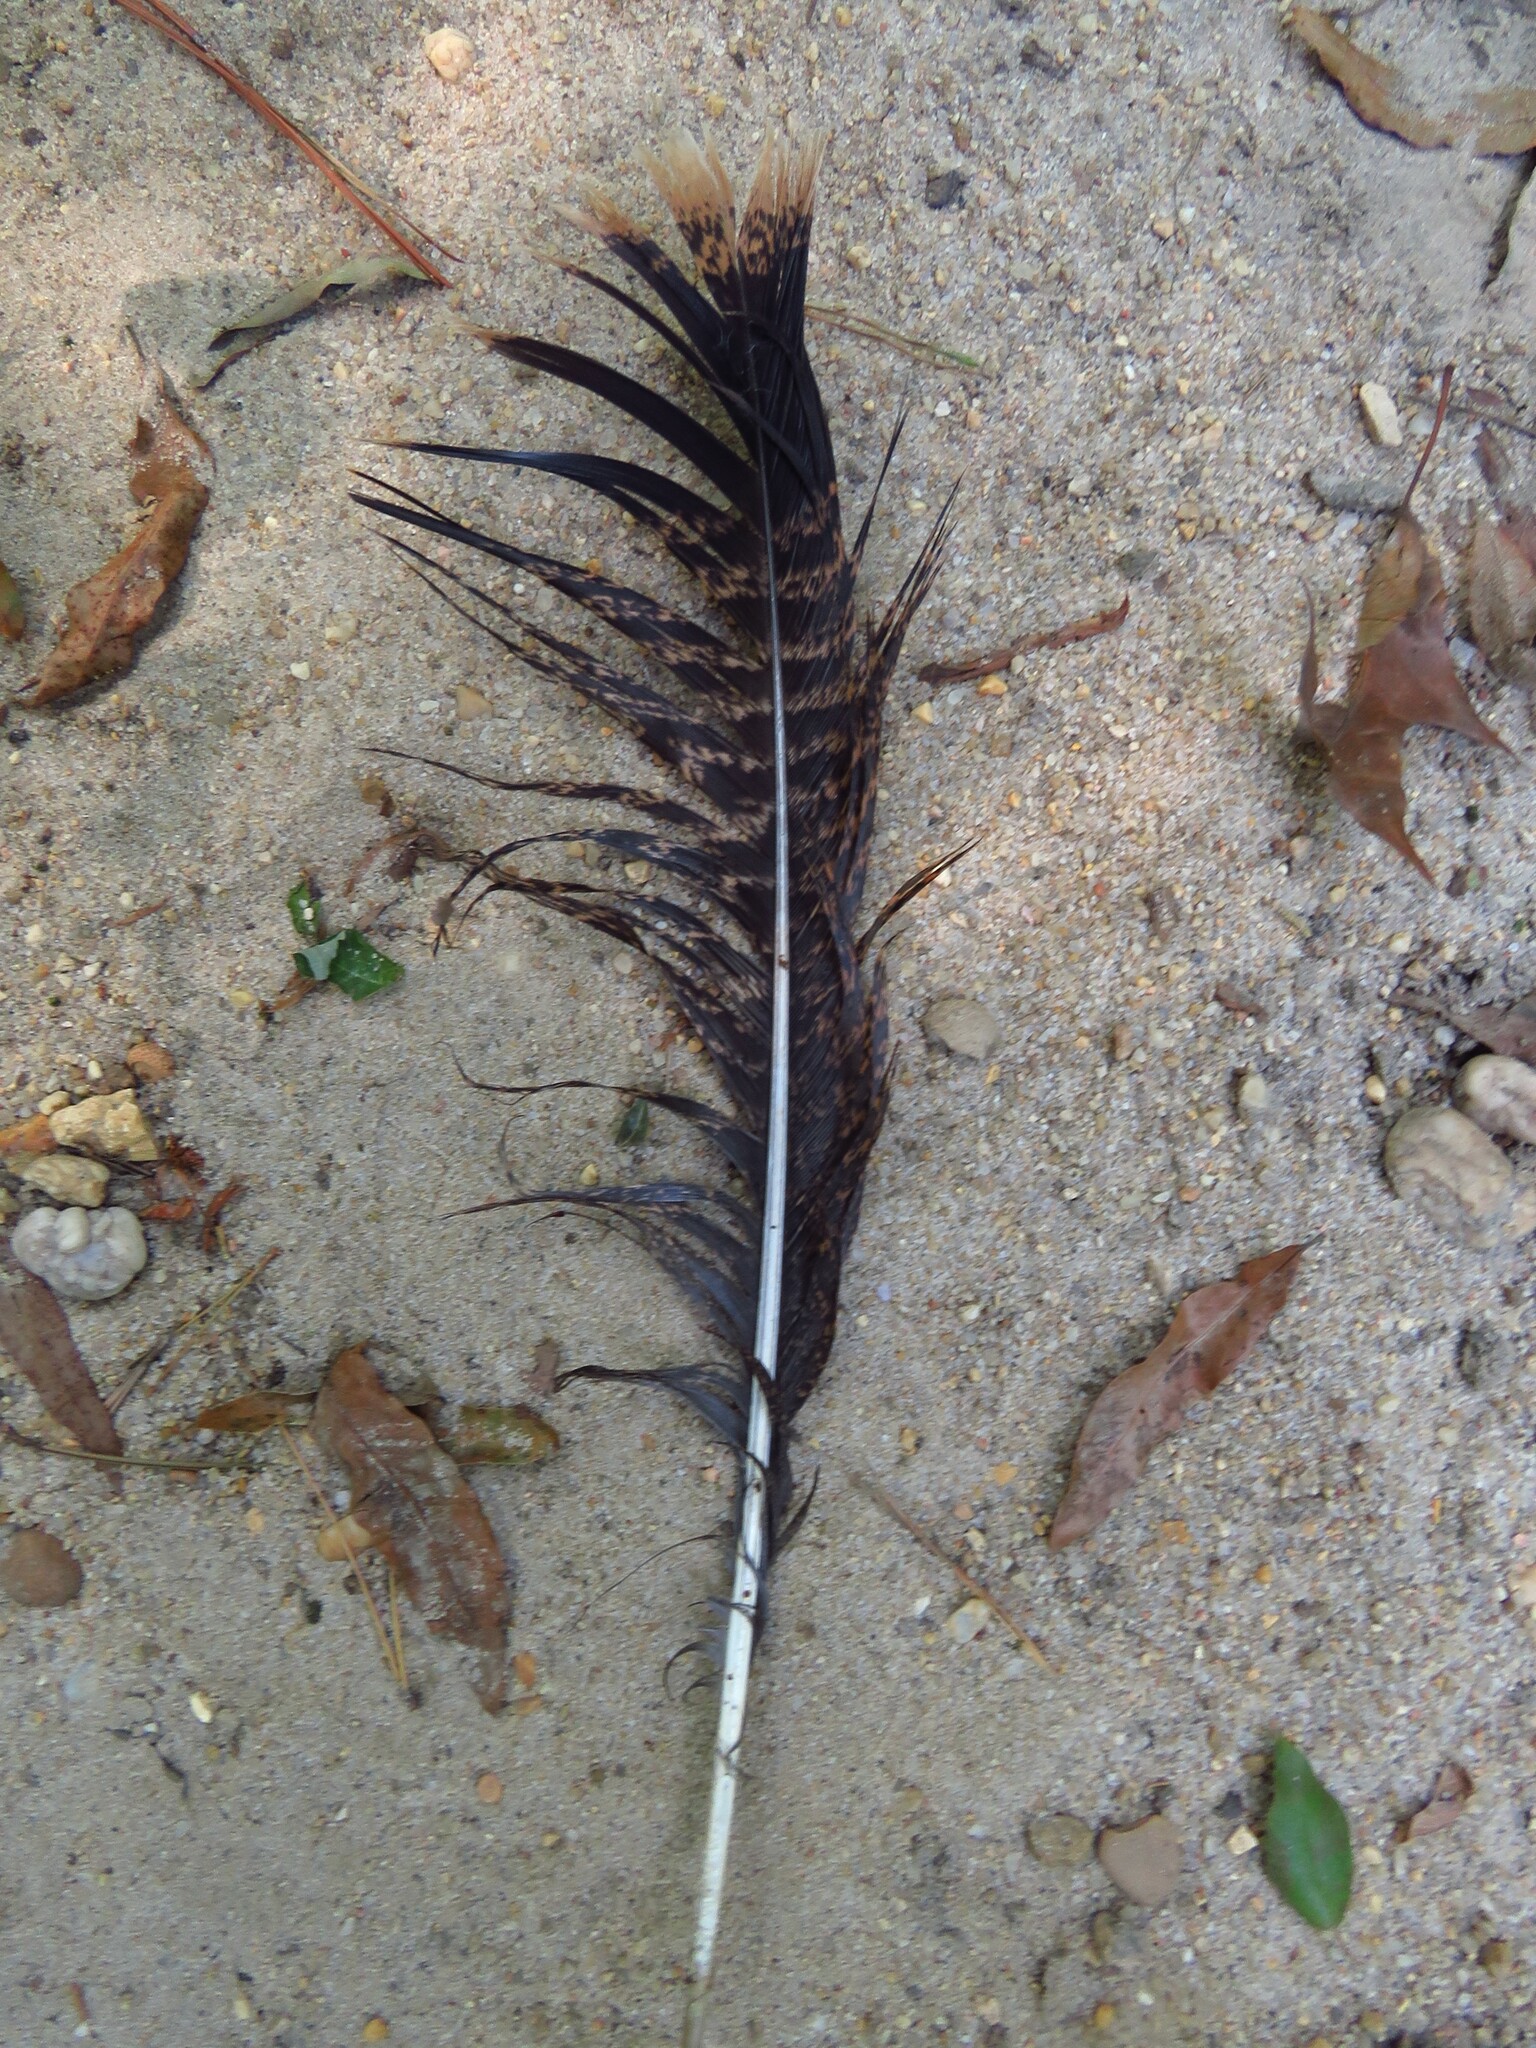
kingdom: Animalia
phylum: Chordata
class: Aves
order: Galliformes
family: Phasianidae
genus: Meleagris
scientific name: Meleagris gallopavo
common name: Wild turkey
